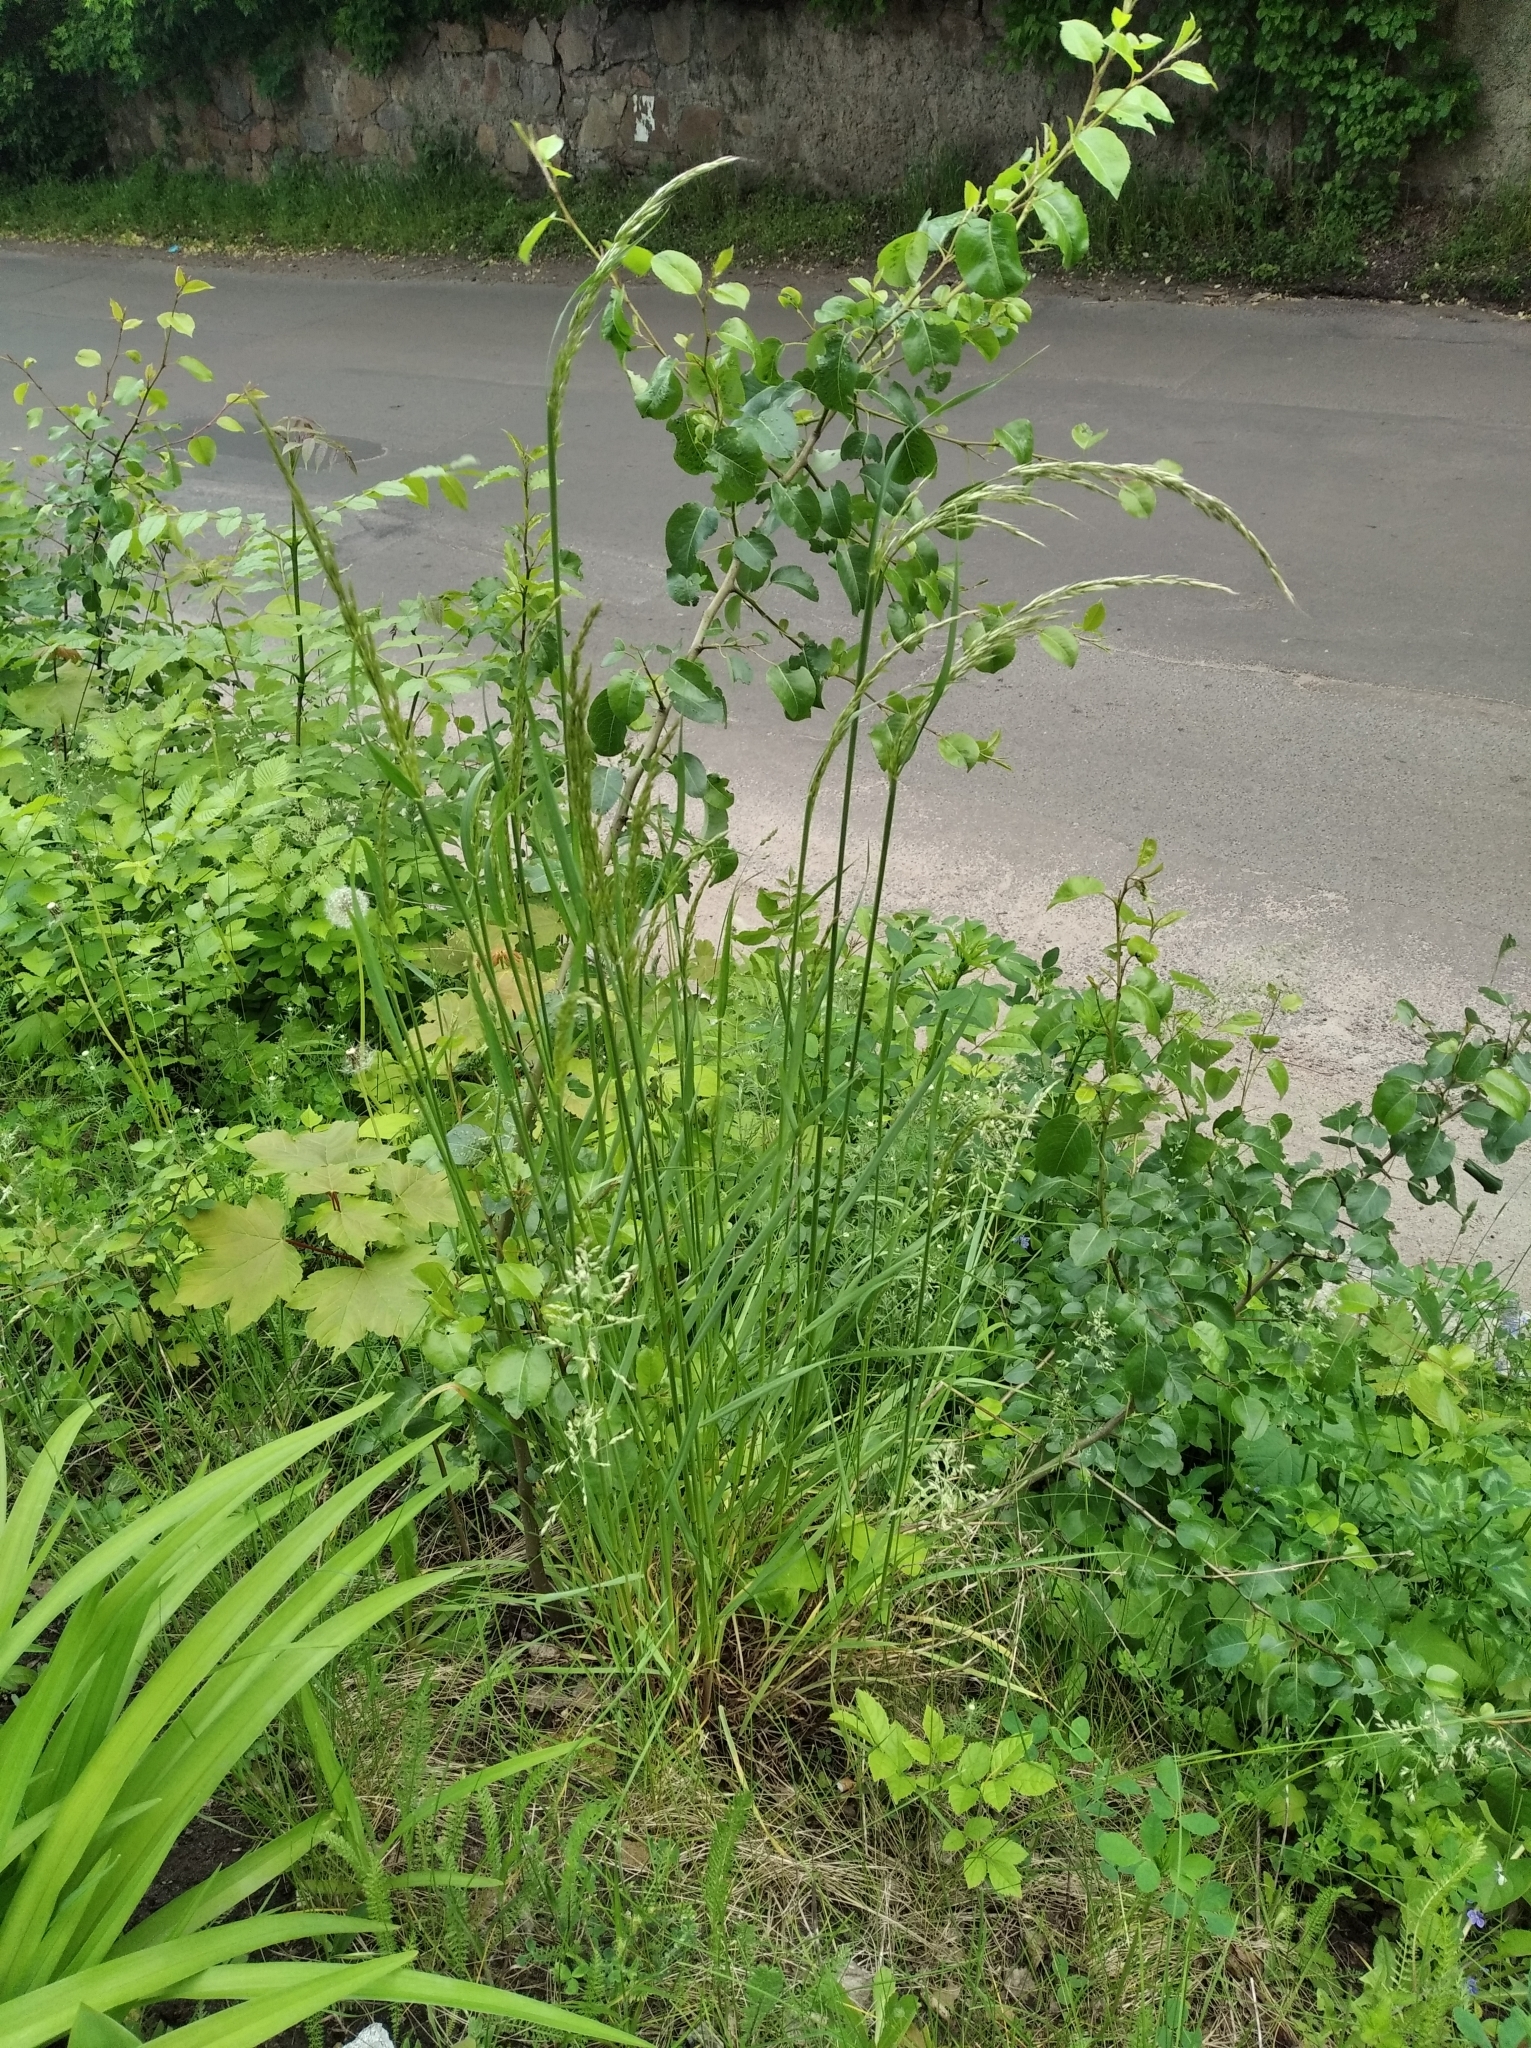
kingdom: Plantae
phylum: Tracheophyta
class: Liliopsida
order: Poales
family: Poaceae
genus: Arrhenatherum
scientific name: Arrhenatherum elatius
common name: Tall oatgrass
